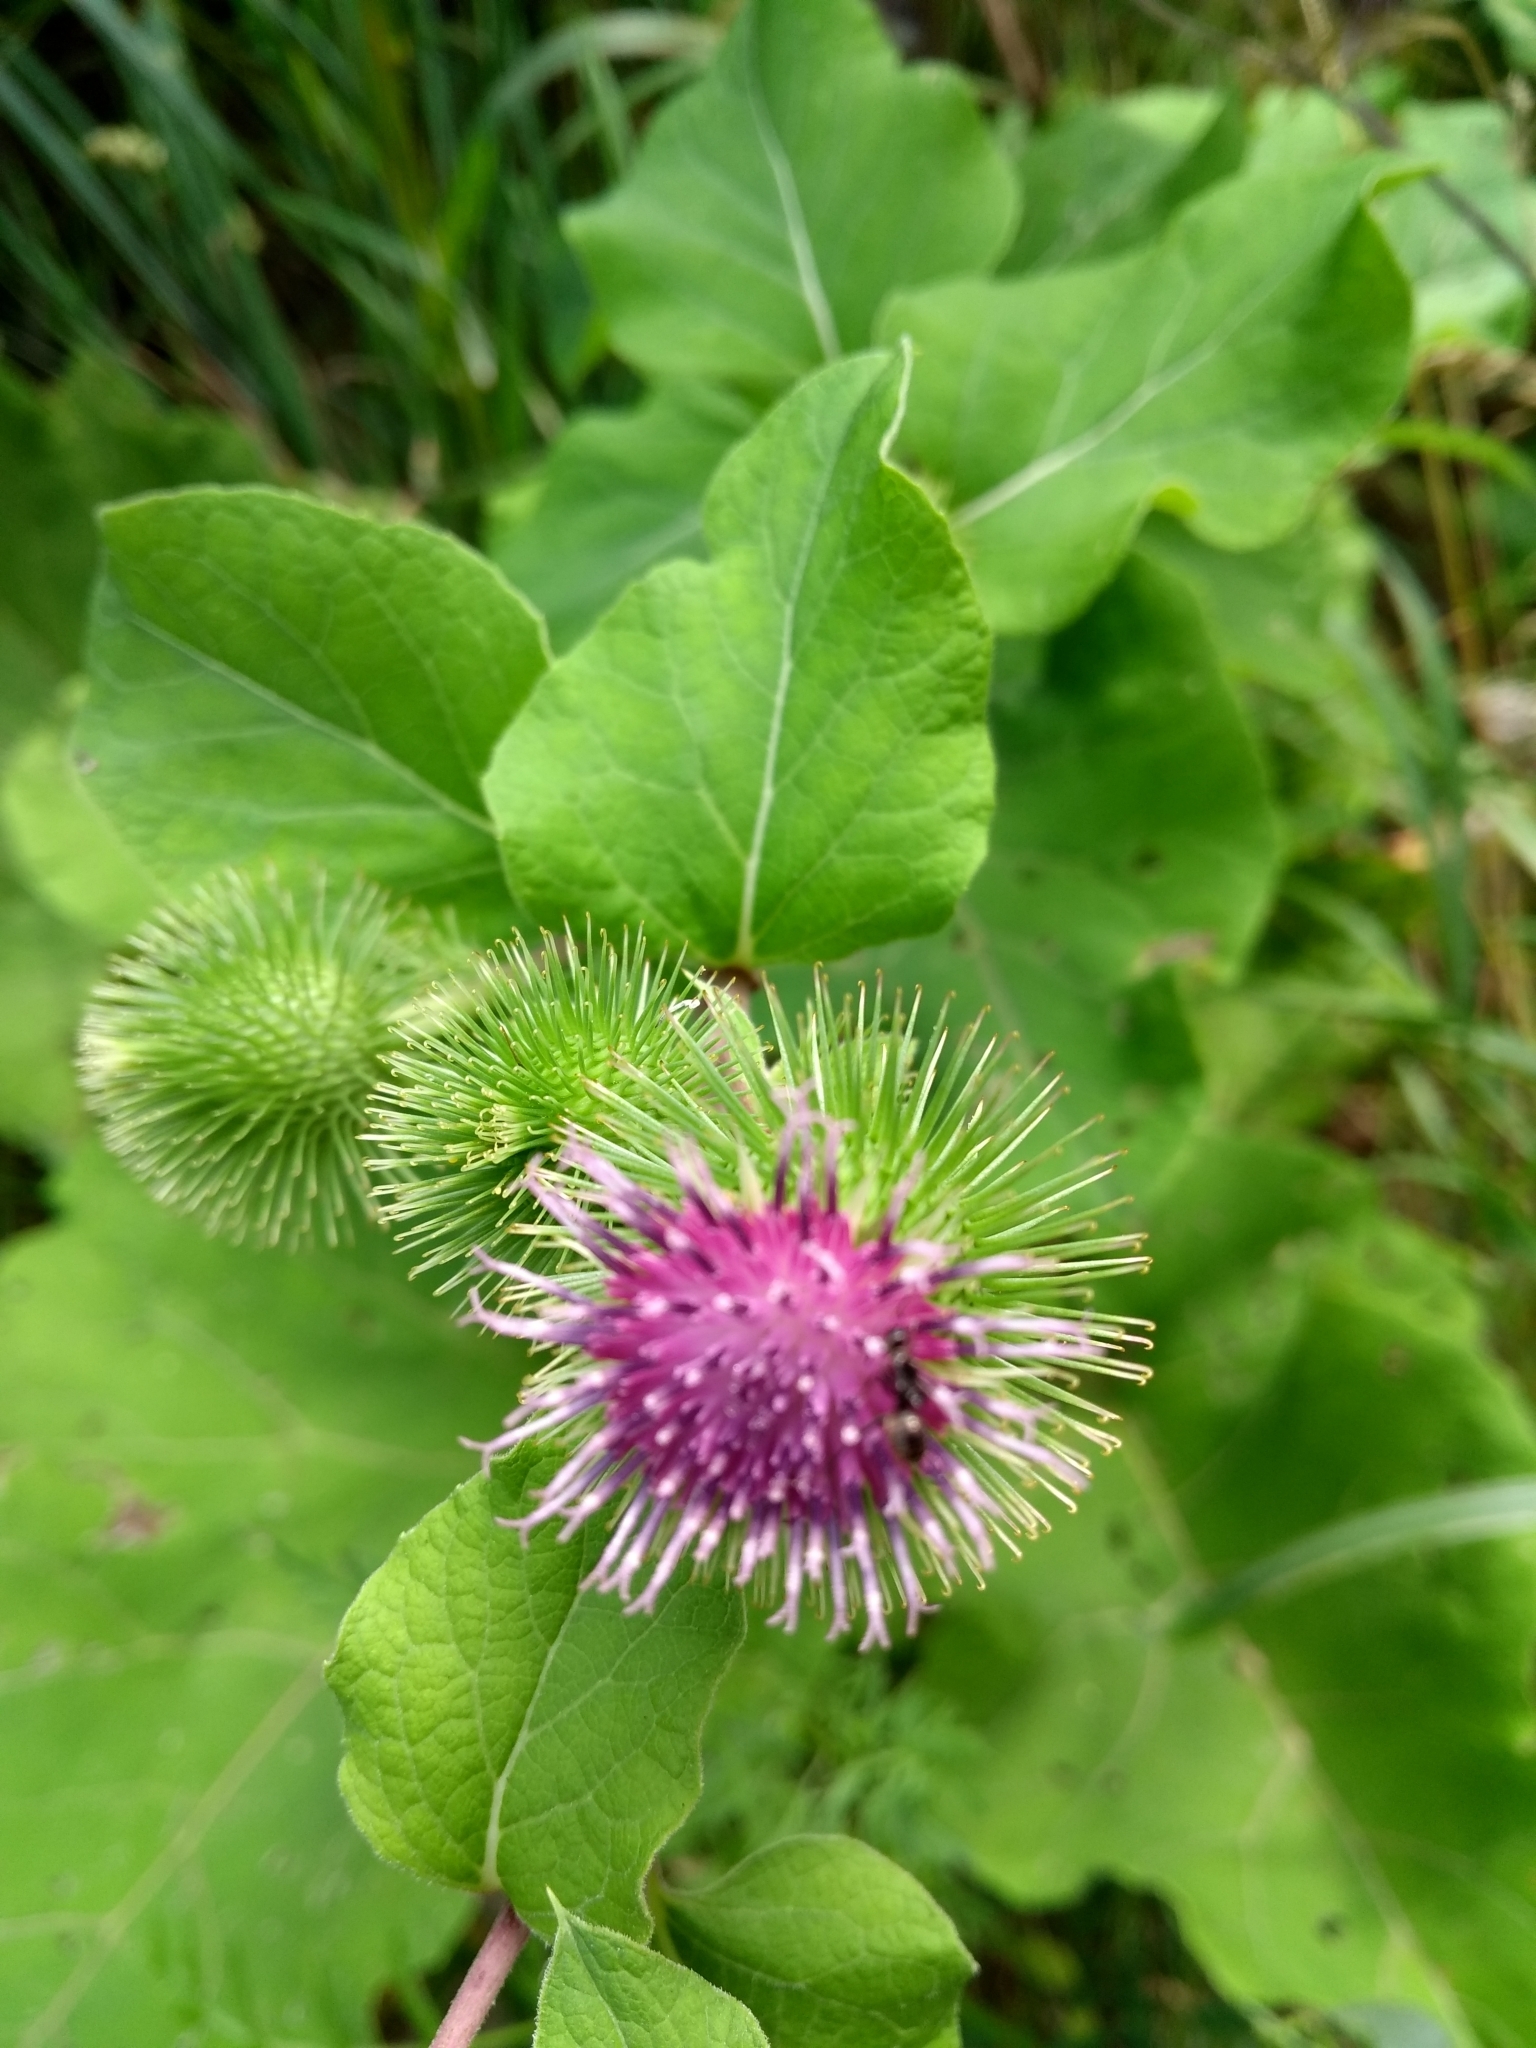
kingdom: Plantae
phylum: Tracheophyta
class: Magnoliopsida
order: Asterales
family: Asteraceae
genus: Arctium
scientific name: Arctium minus
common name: Lesser burdock
